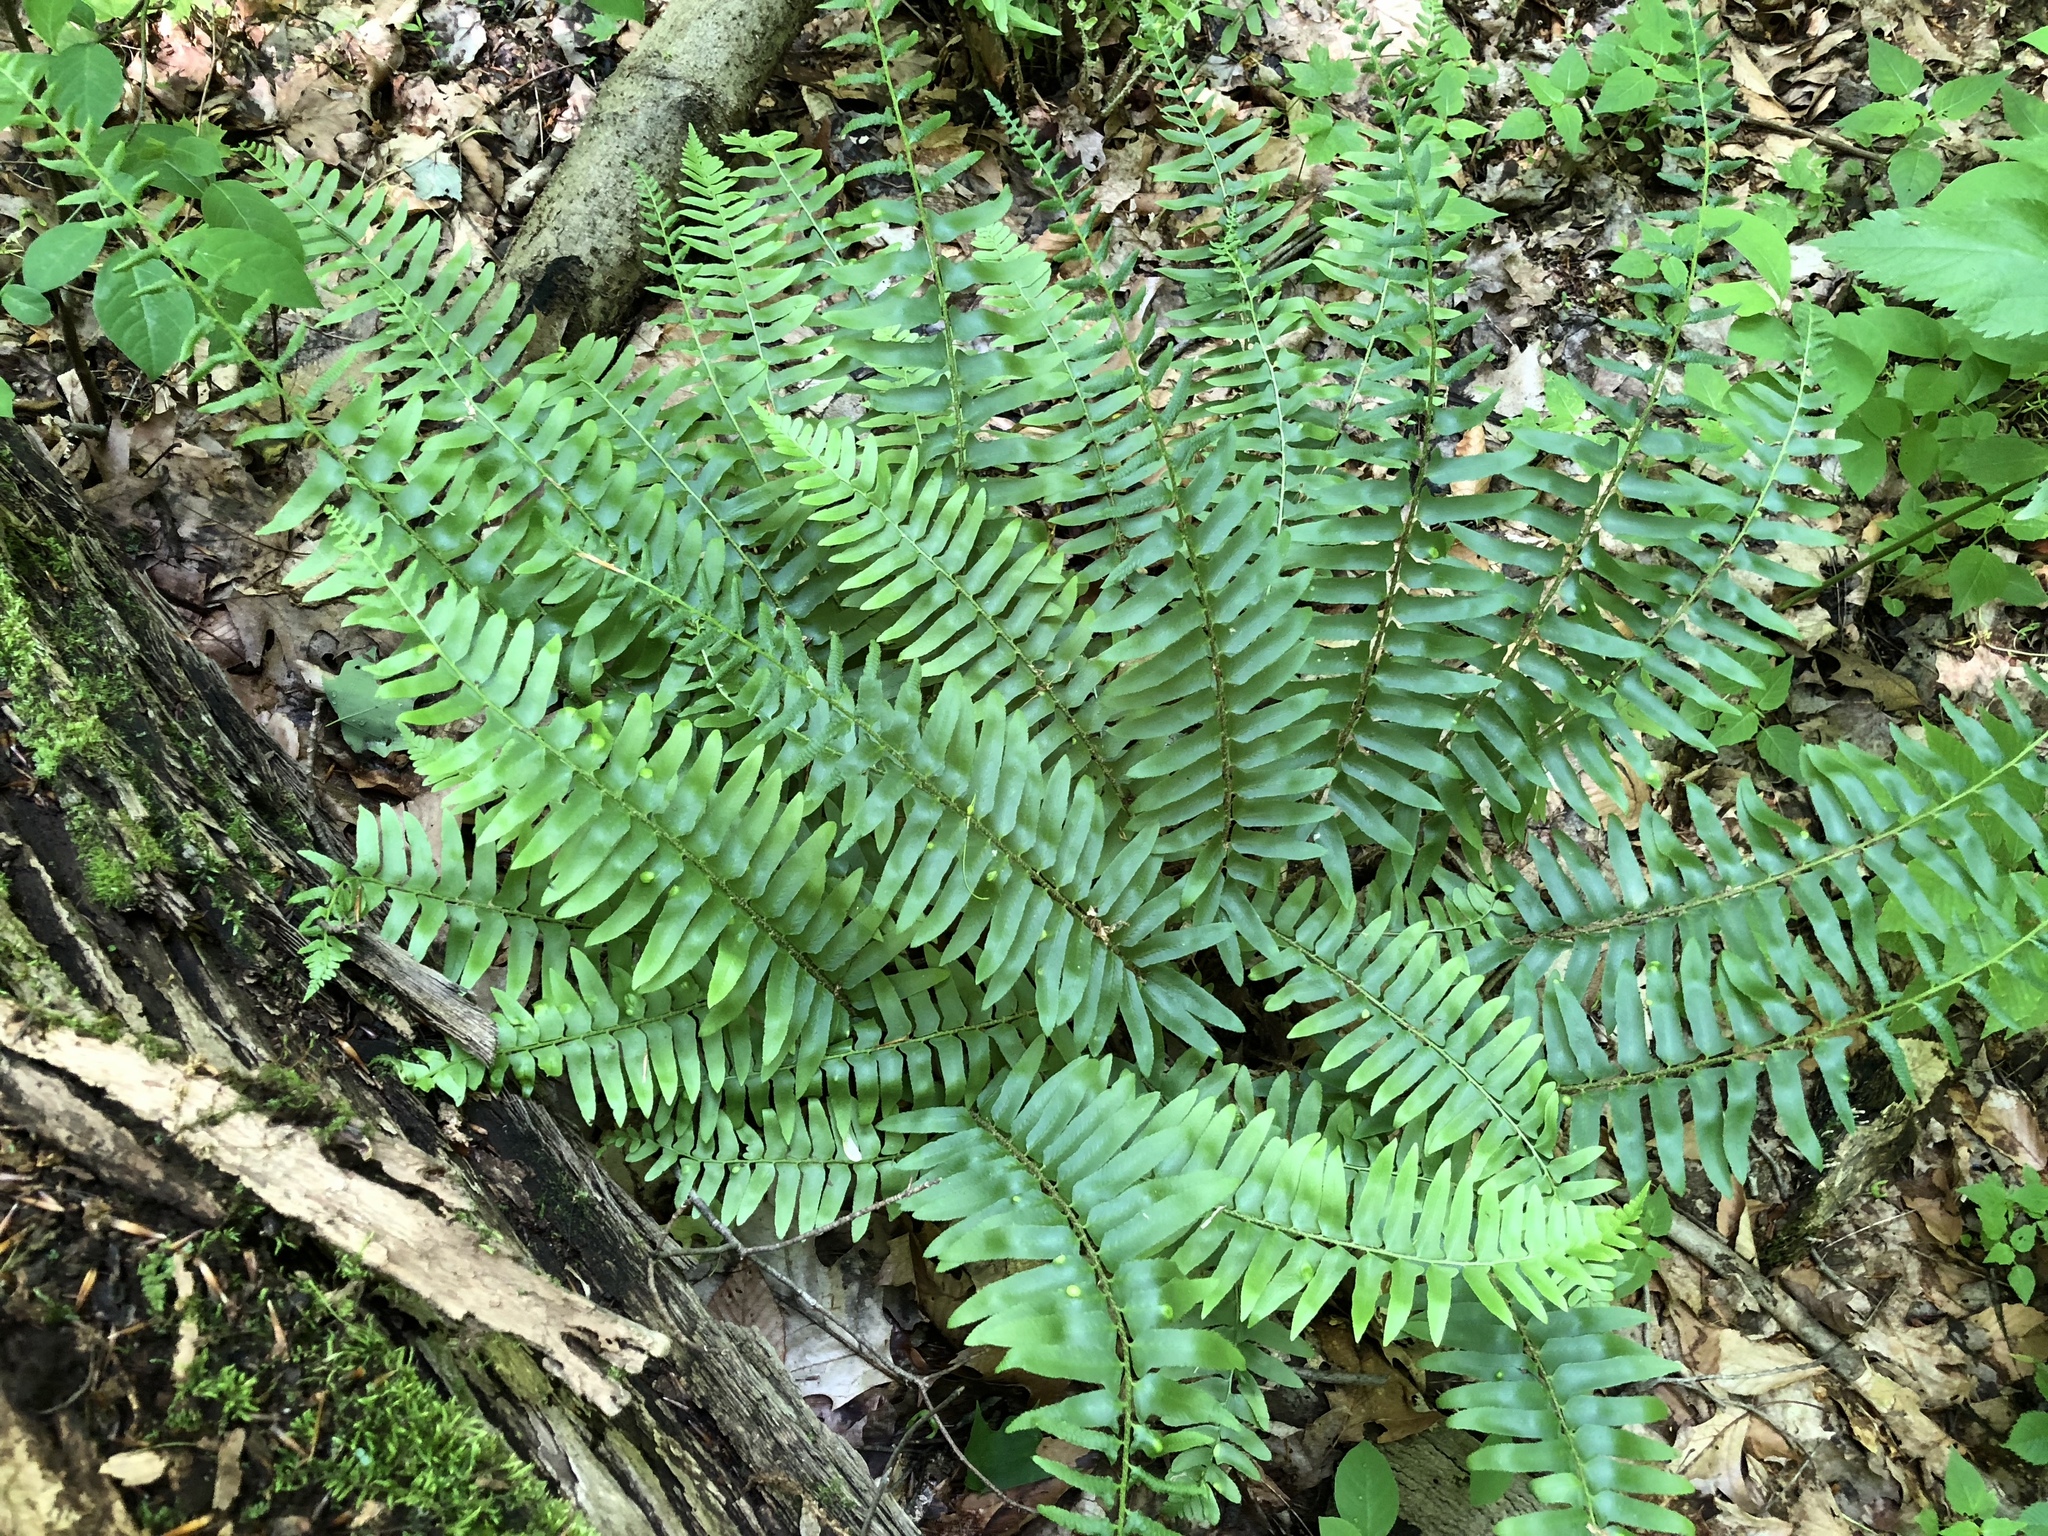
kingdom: Plantae
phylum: Tracheophyta
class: Polypodiopsida
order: Polypodiales
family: Dryopteridaceae
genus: Polystichum
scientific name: Polystichum acrostichoides
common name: Christmas fern
